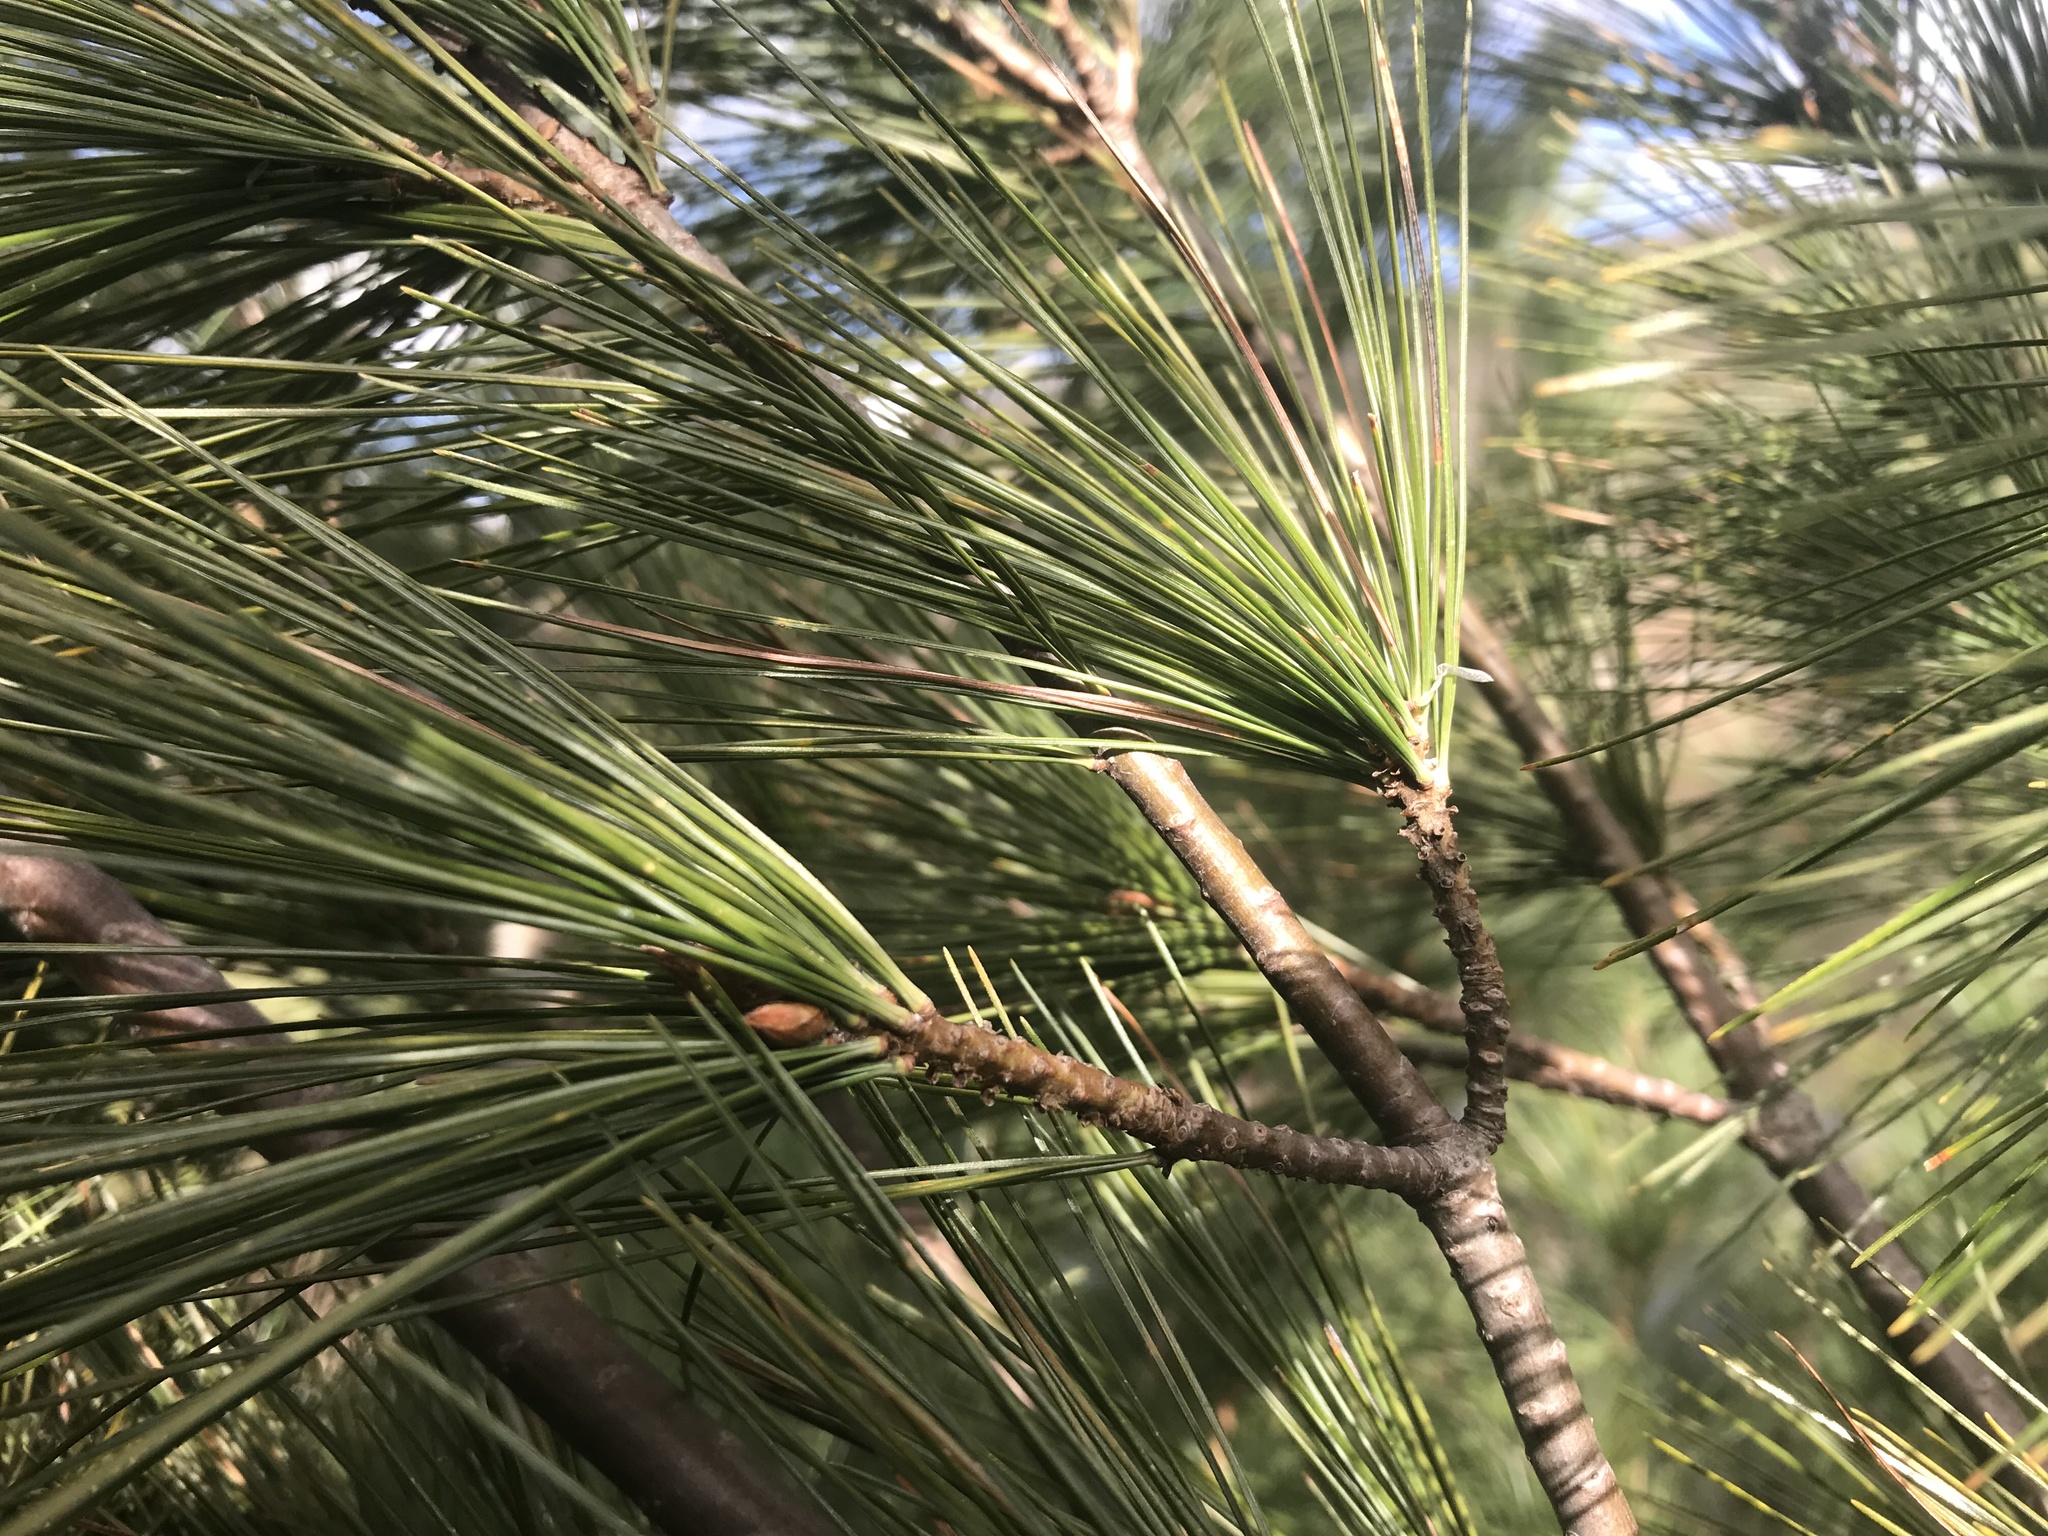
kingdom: Plantae
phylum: Tracheophyta
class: Pinopsida
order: Pinales
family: Pinaceae
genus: Pinus
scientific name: Pinus strobus
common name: Weymouth pine
